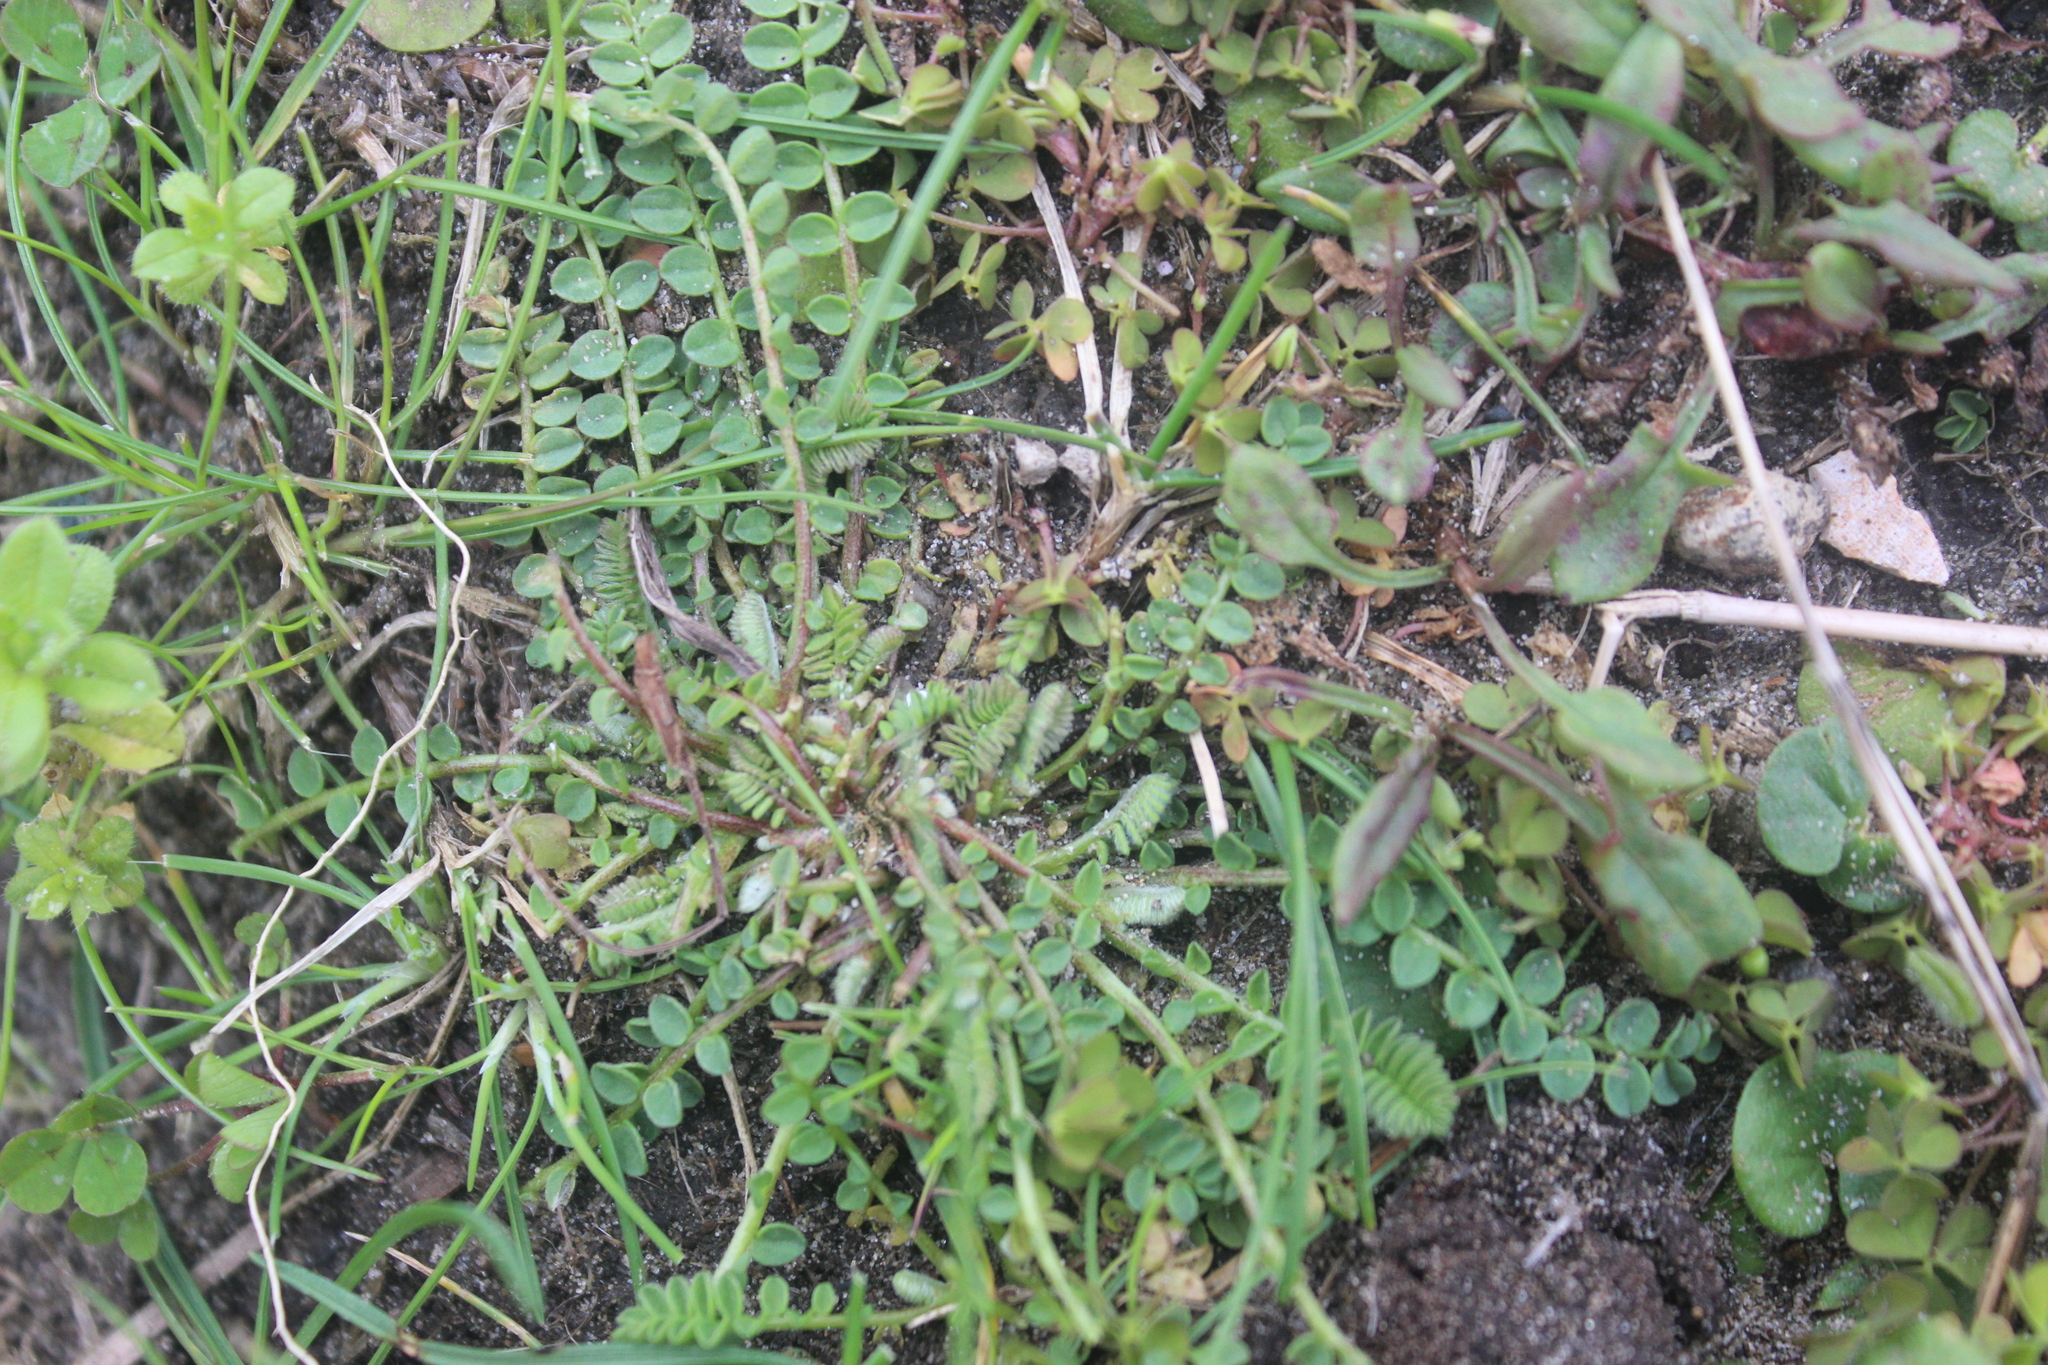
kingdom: Plantae
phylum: Tracheophyta
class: Magnoliopsida
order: Fabales
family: Fabaceae
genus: Ornithopus
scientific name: Ornithopus perpusillus
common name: Bird's-foot
